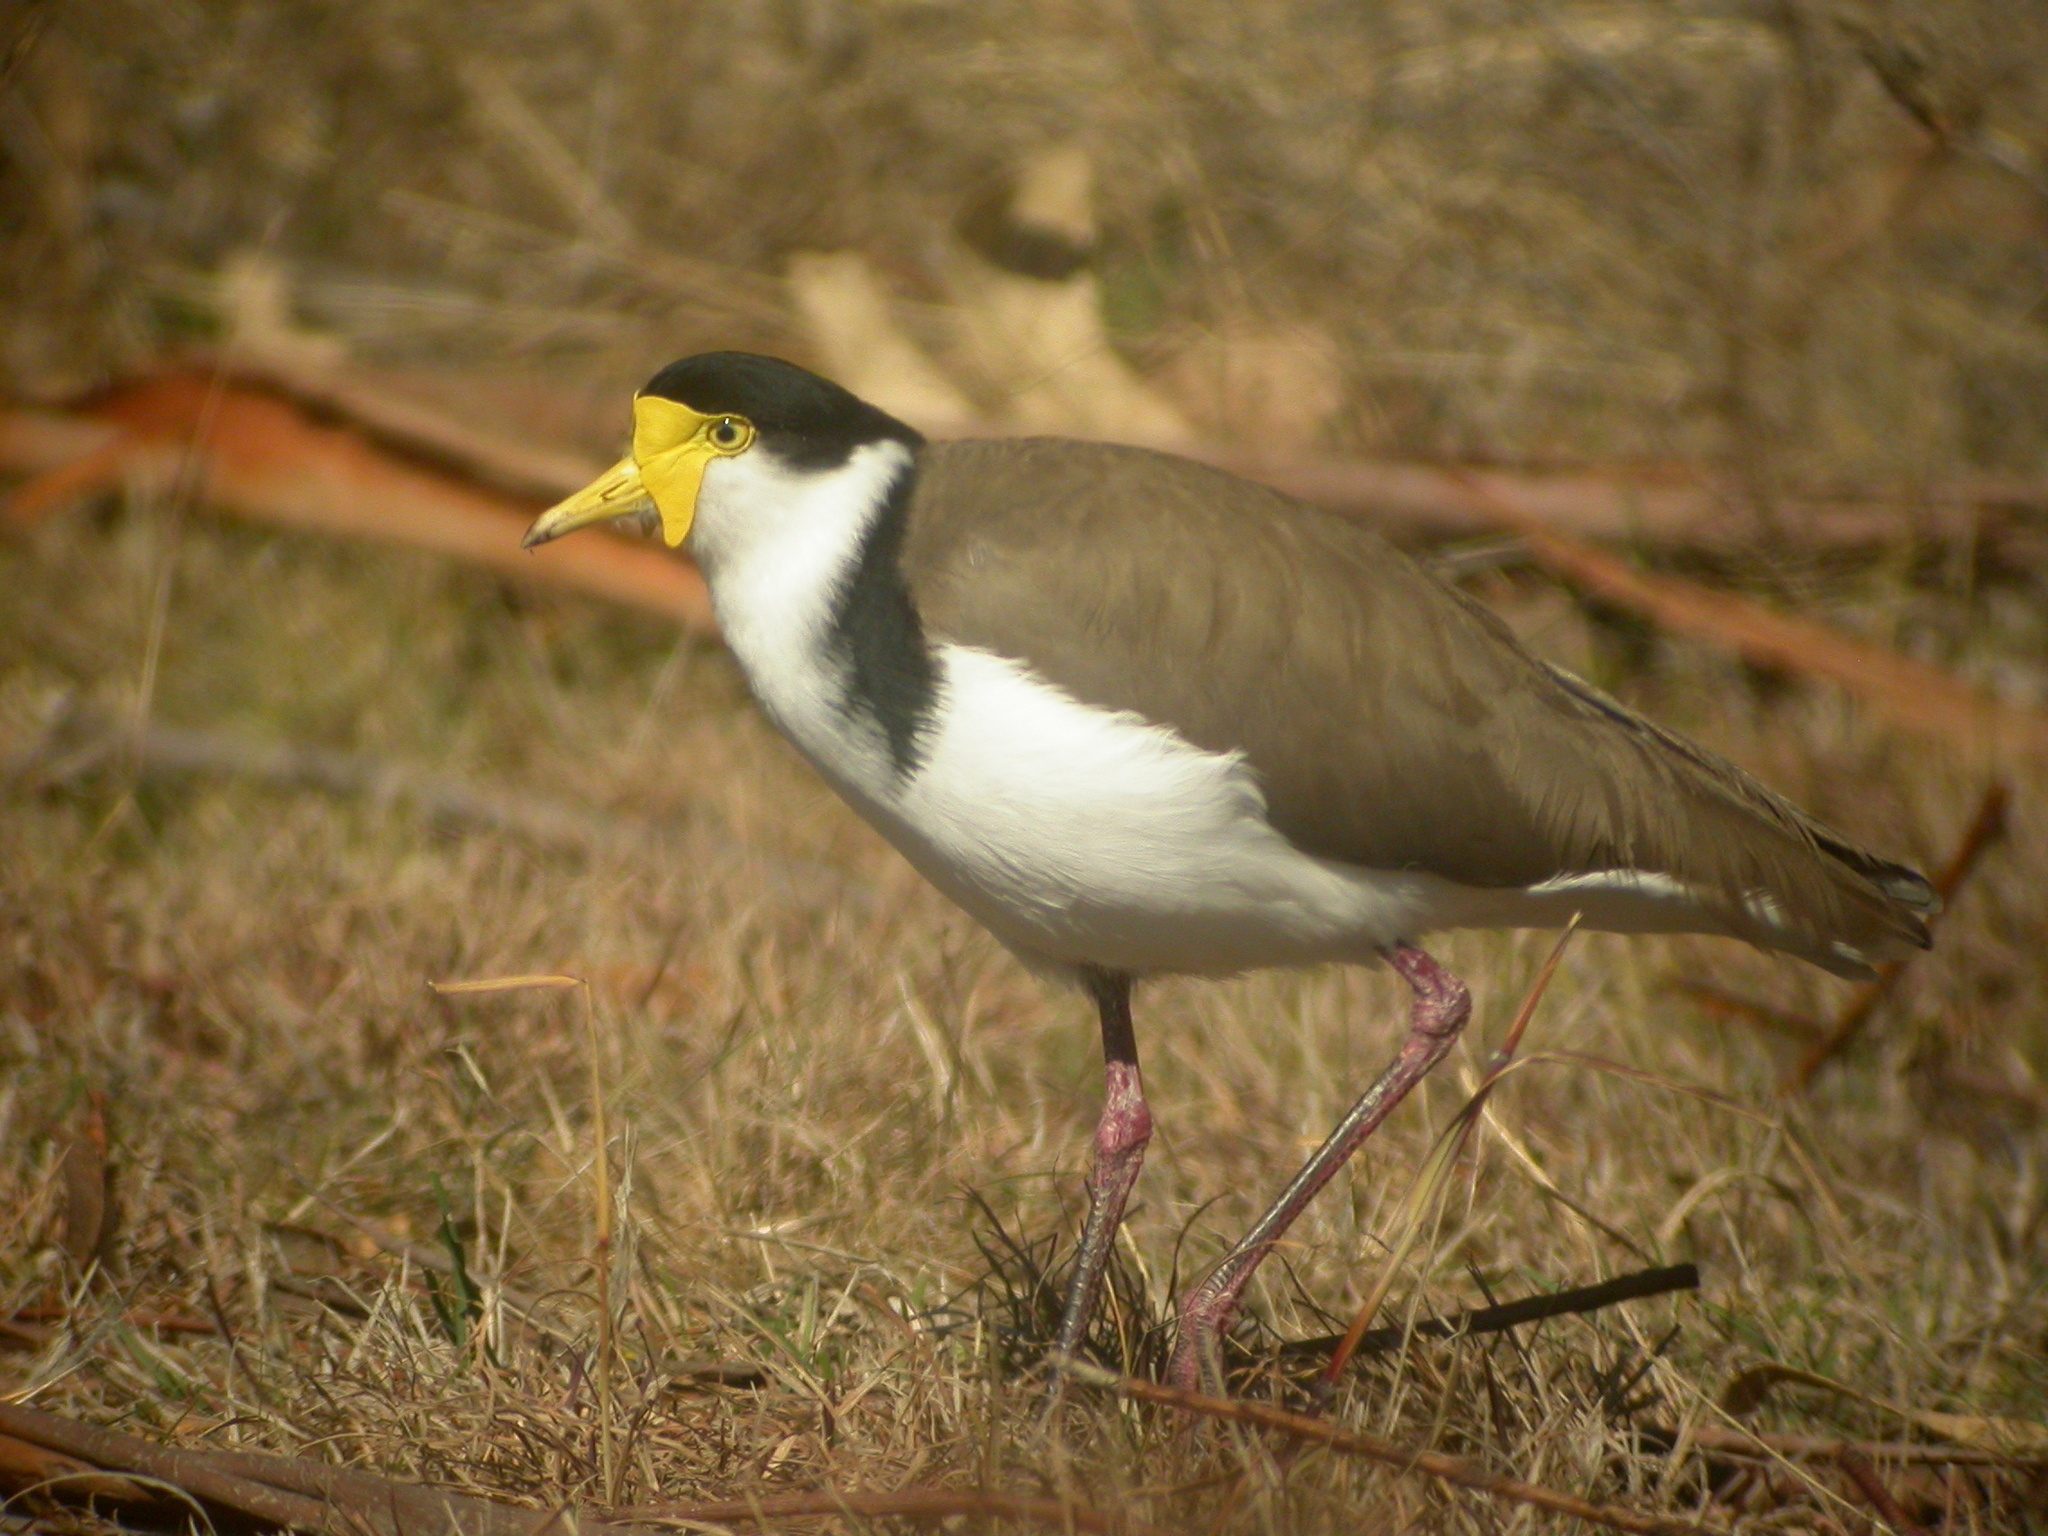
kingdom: Animalia
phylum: Chordata
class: Aves
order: Charadriiformes
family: Charadriidae
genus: Vanellus
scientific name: Vanellus miles
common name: Masked lapwing
